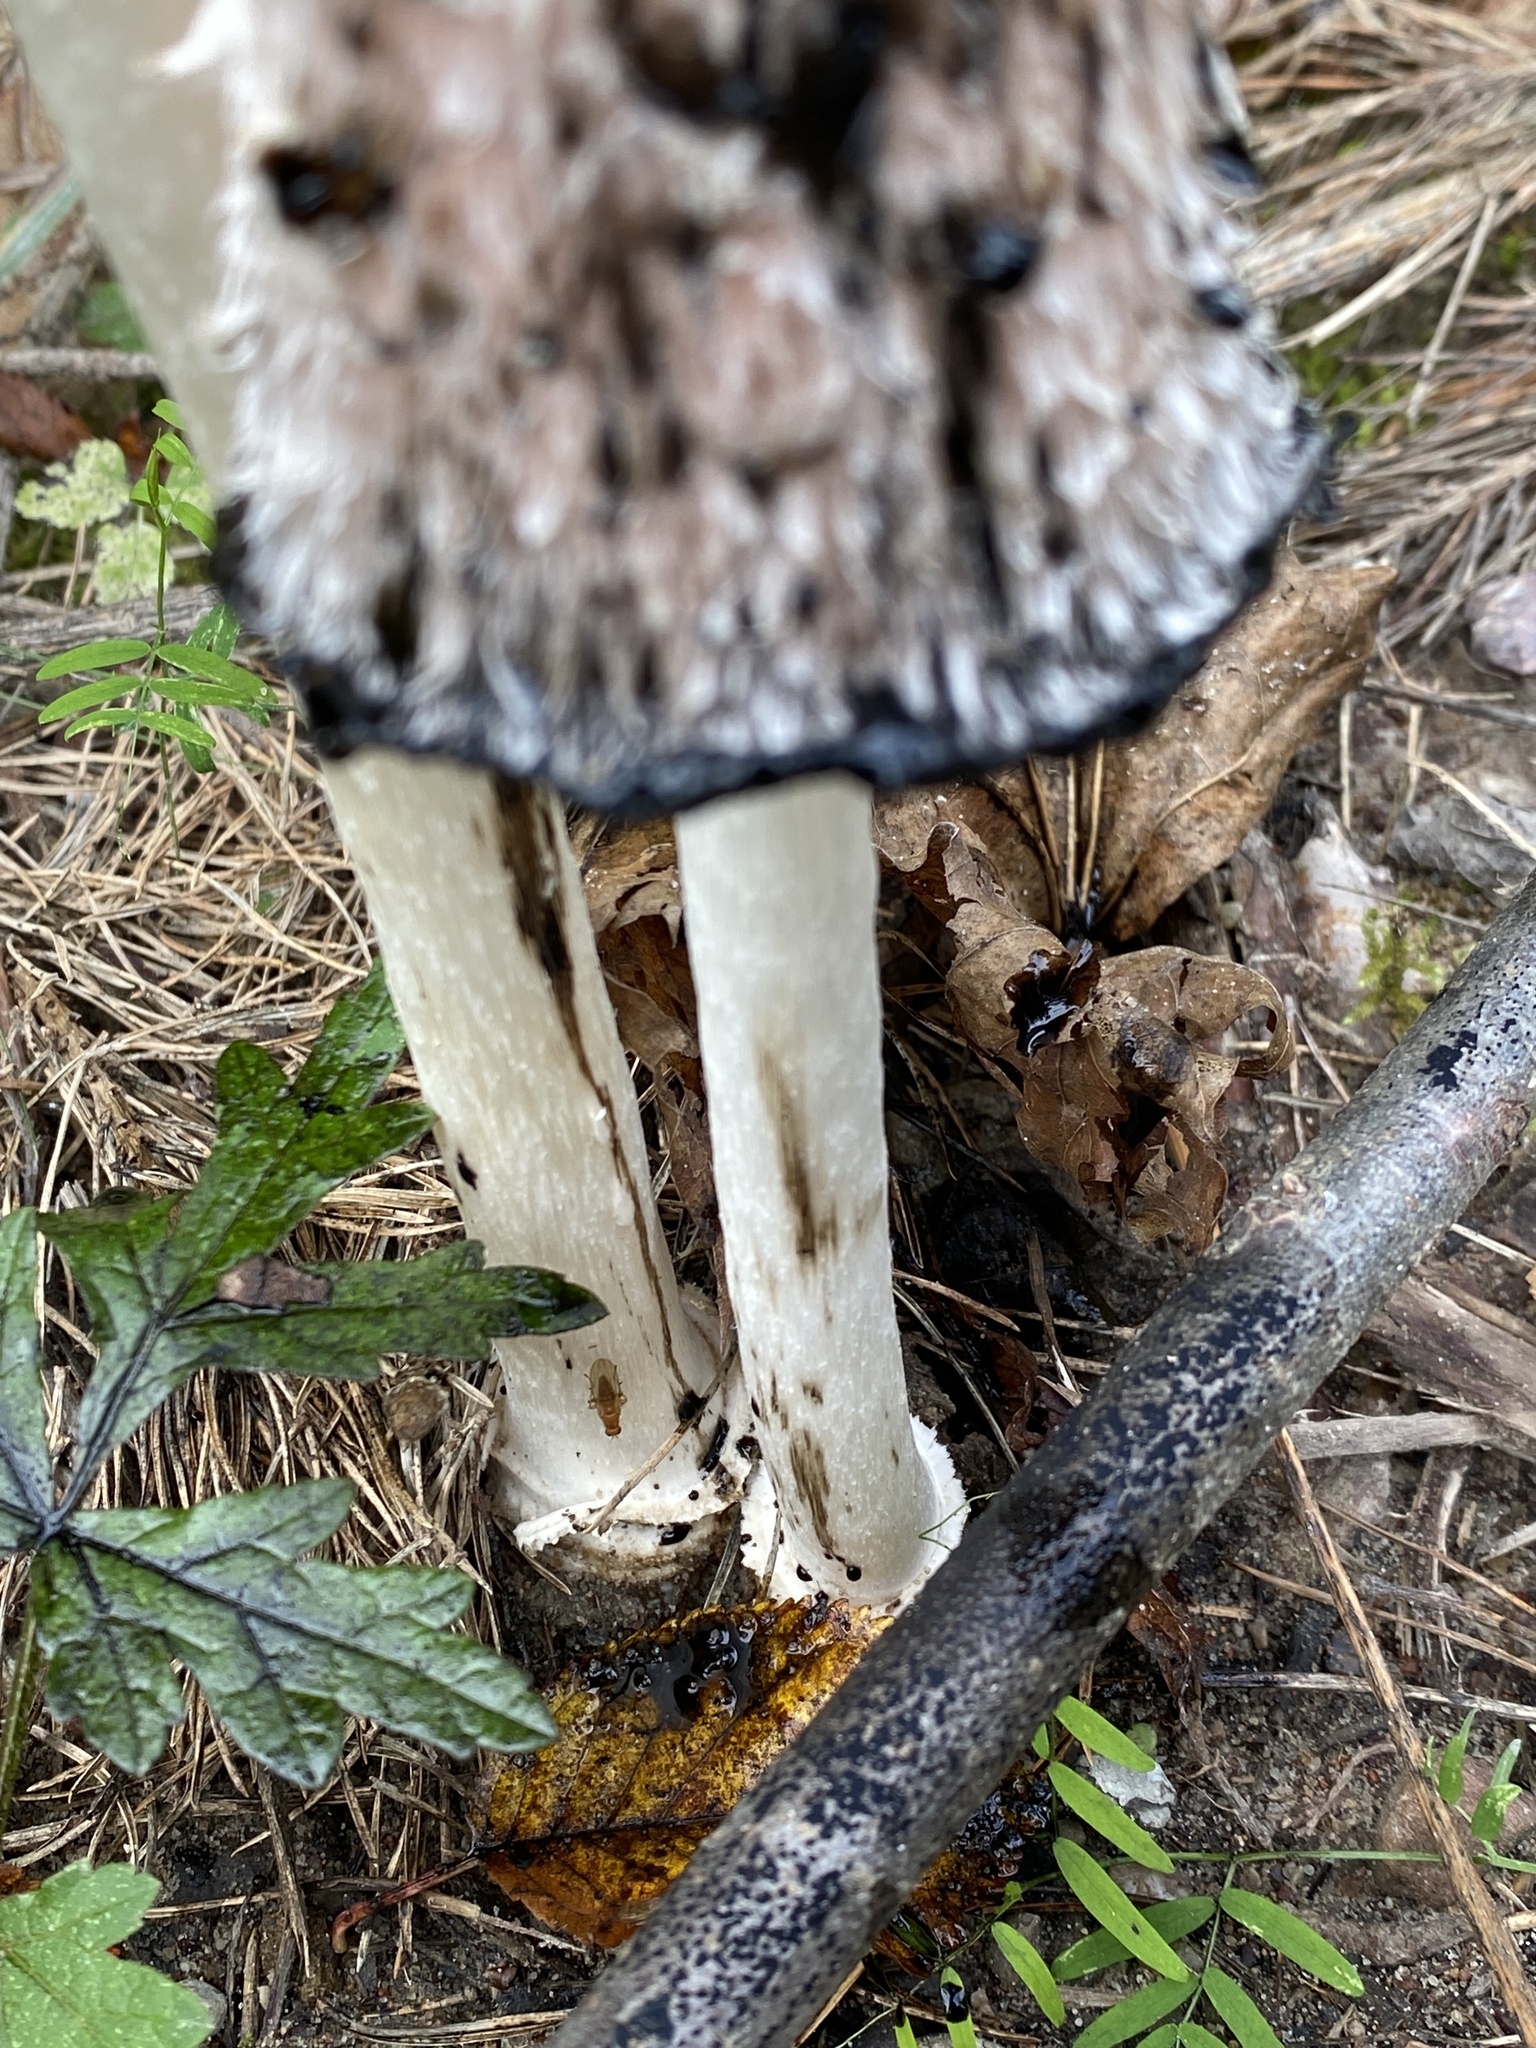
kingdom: Fungi
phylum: Basidiomycota
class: Agaricomycetes
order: Agaricales
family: Agaricaceae
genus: Coprinus
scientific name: Coprinus comatus
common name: Lawyer's wig
